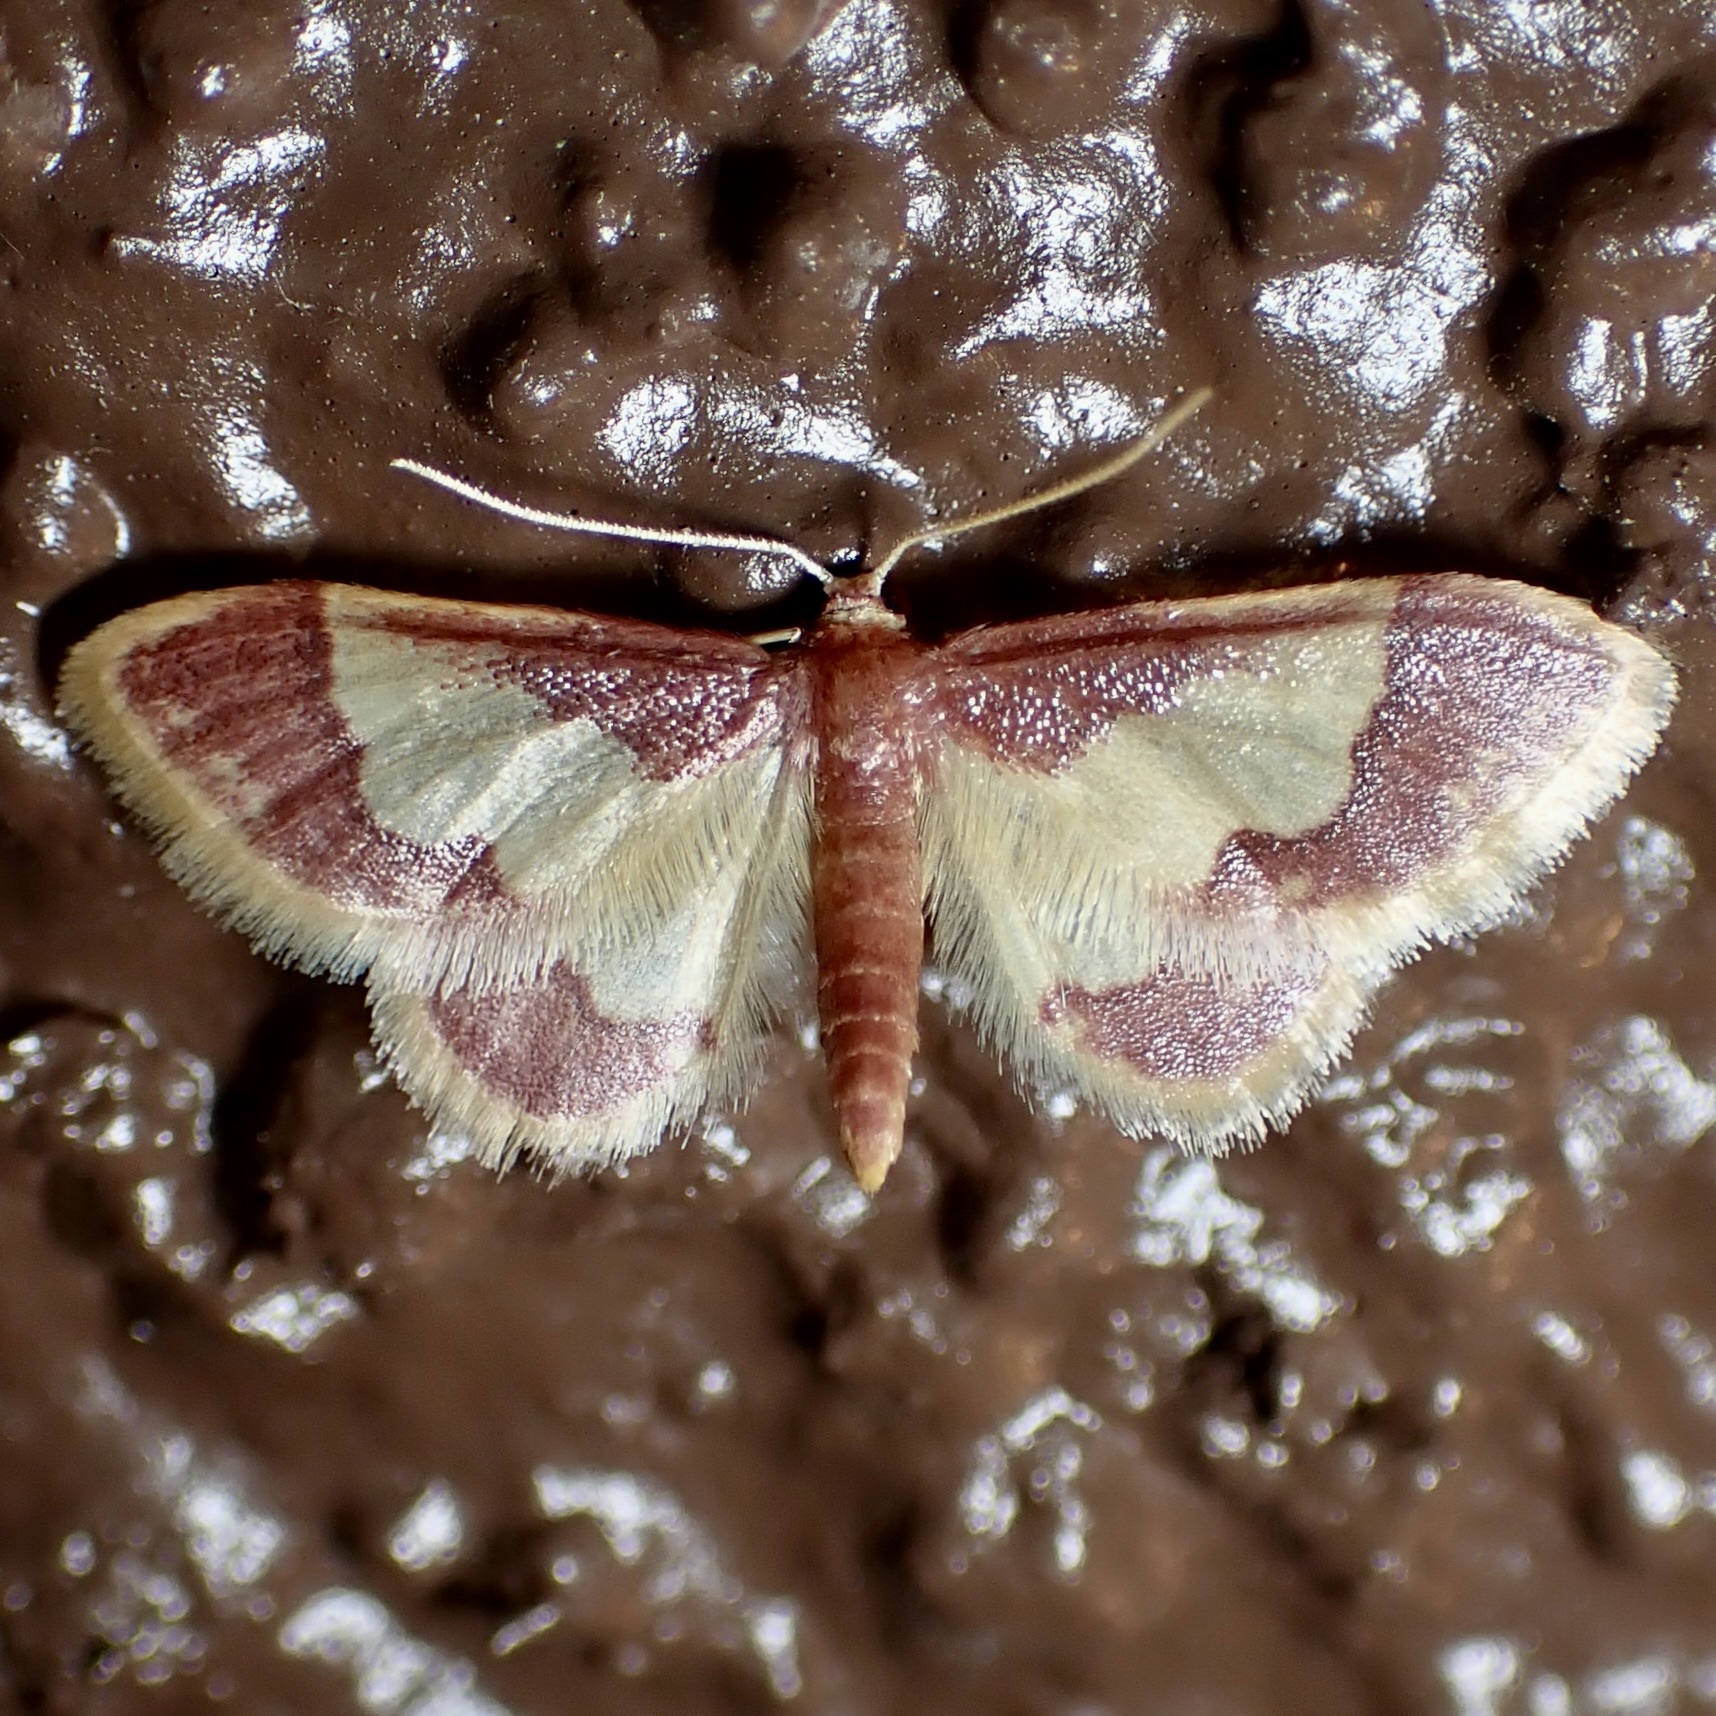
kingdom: Animalia
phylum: Arthropoda
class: Insecta
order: Lepidoptera
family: Geometridae
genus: Idaea
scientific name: Idaea basinta
